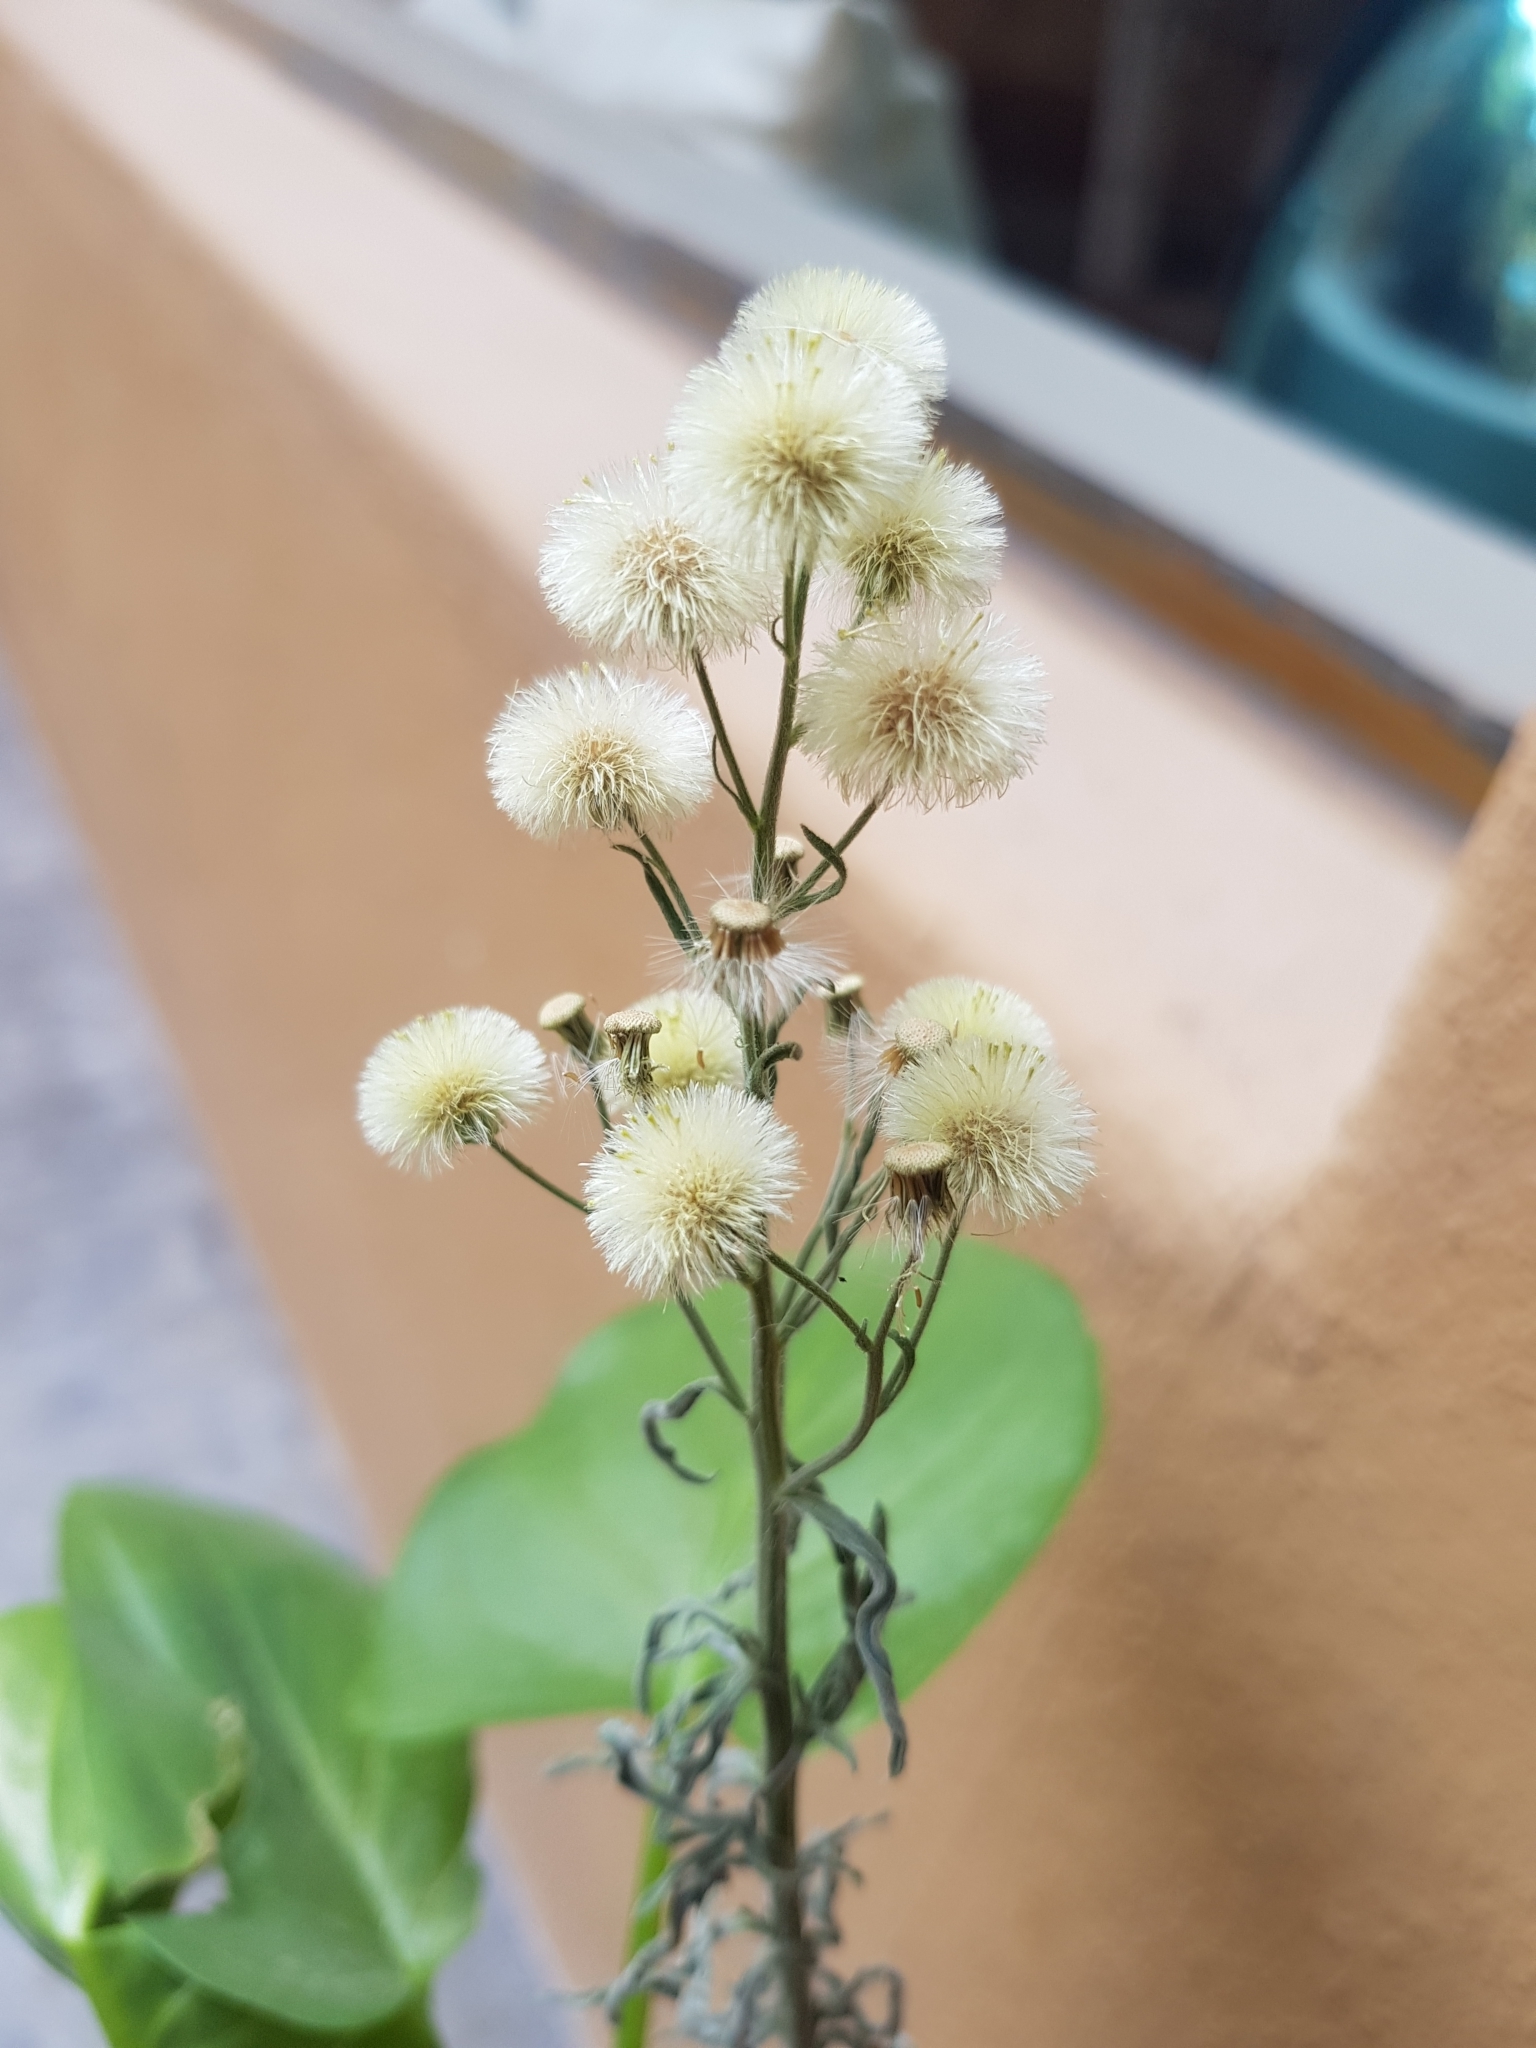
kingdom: Plantae
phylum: Tracheophyta
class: Magnoliopsida
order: Asterales
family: Asteraceae
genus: Erigeron
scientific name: Erigeron bonariensis
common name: Argentine fleabane
